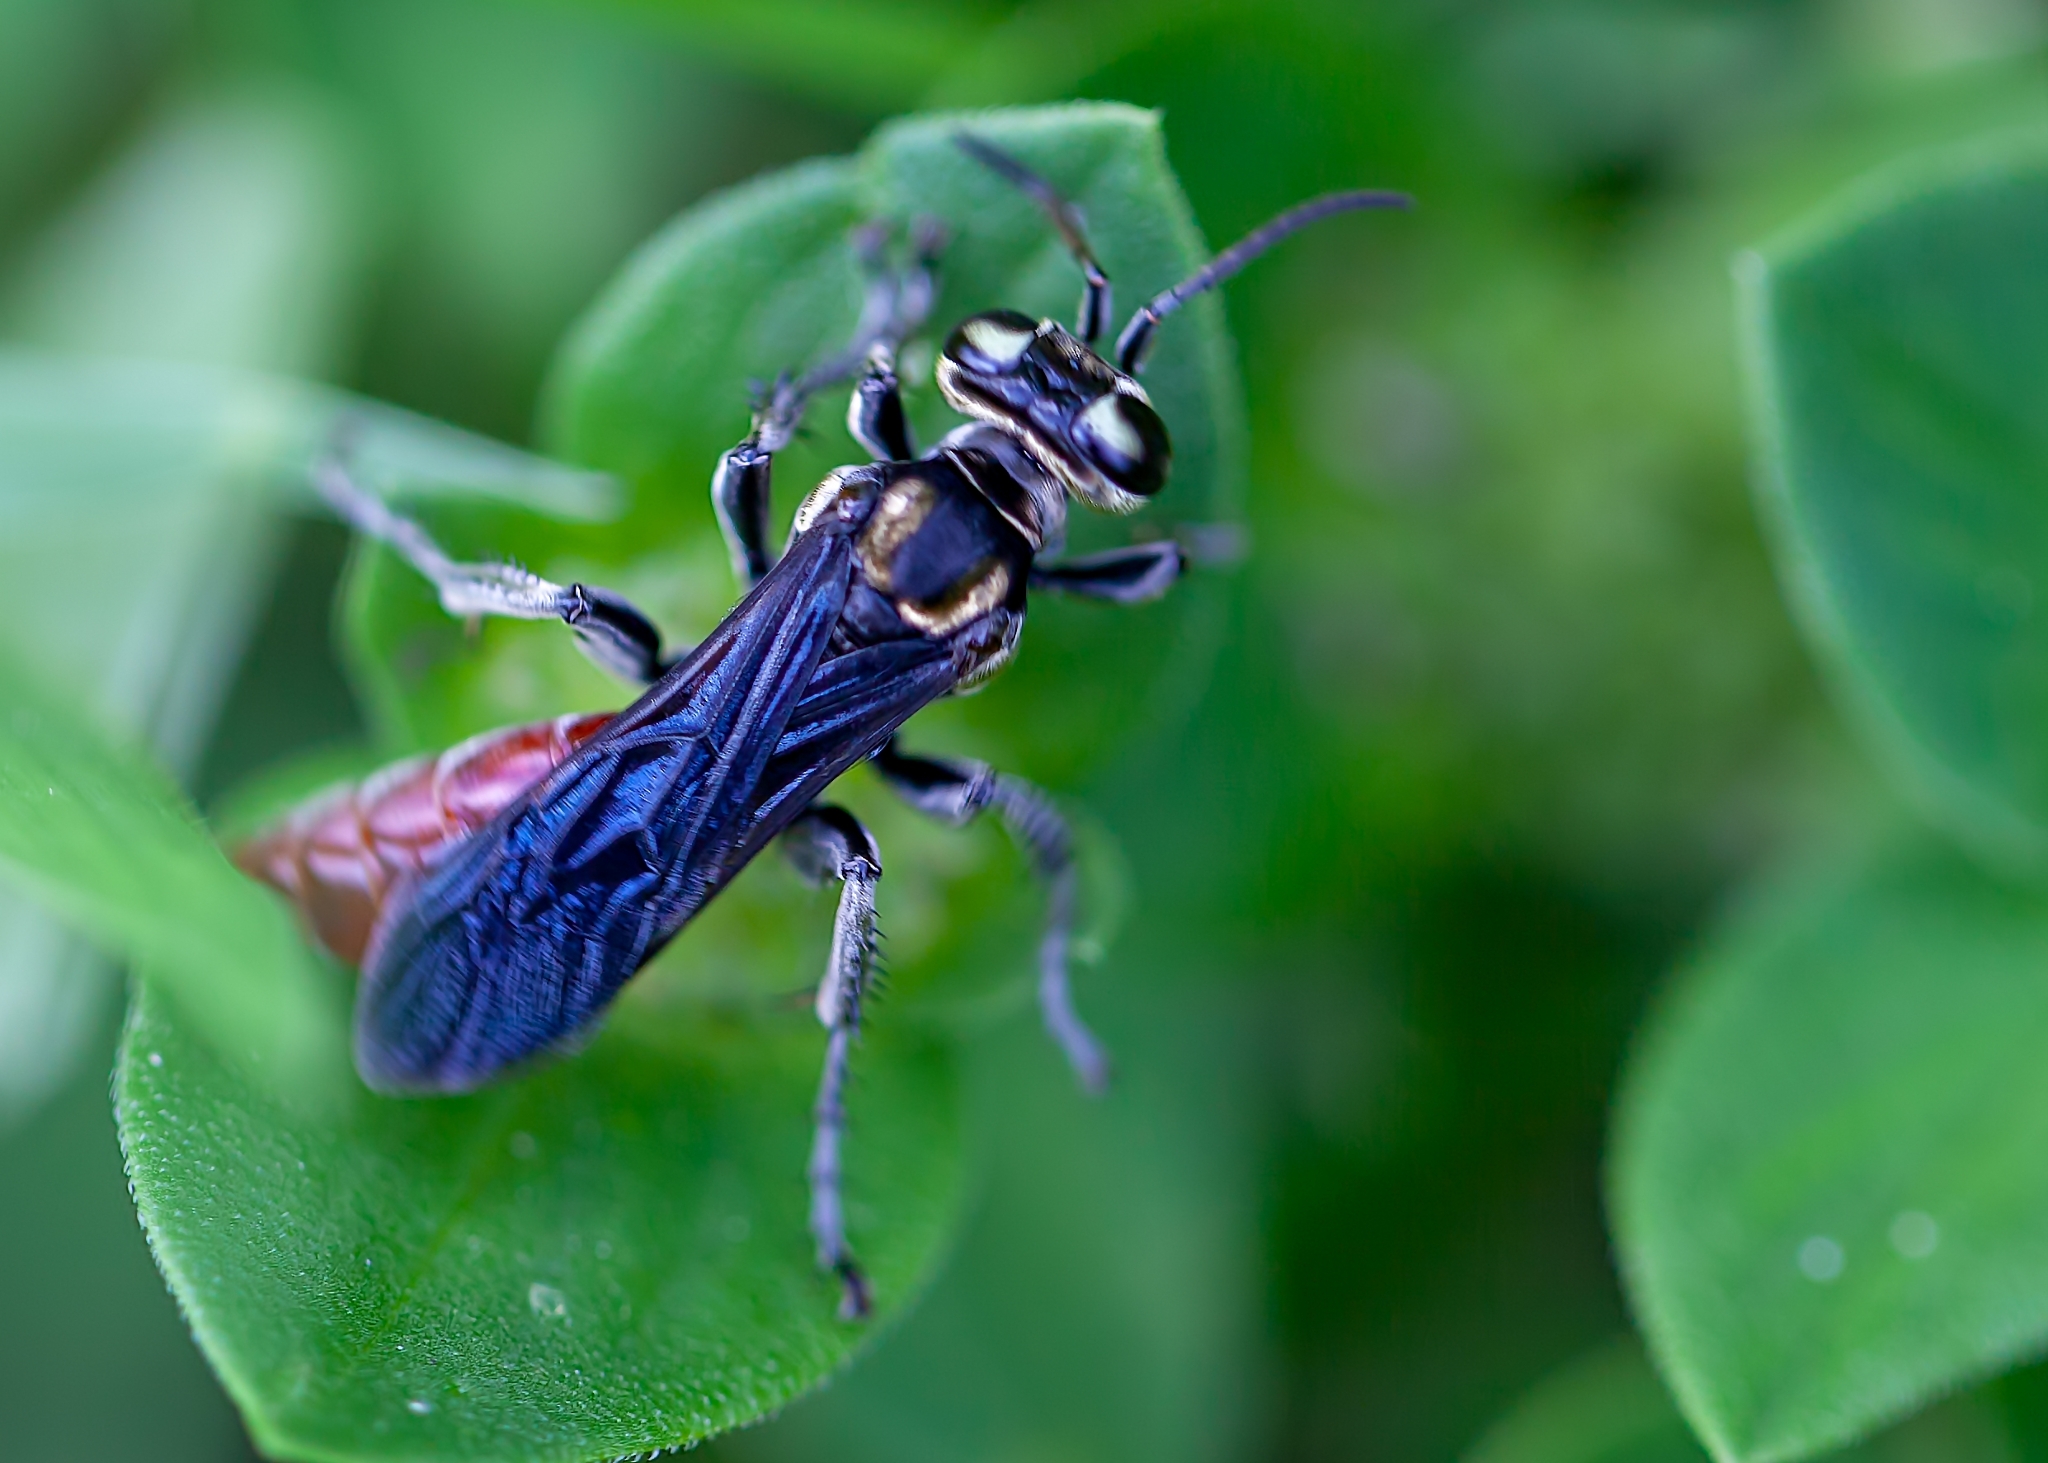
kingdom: Animalia
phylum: Arthropoda
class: Insecta
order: Hymenoptera
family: Crabronidae
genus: Larra
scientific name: Larra bicolor
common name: Wasp
